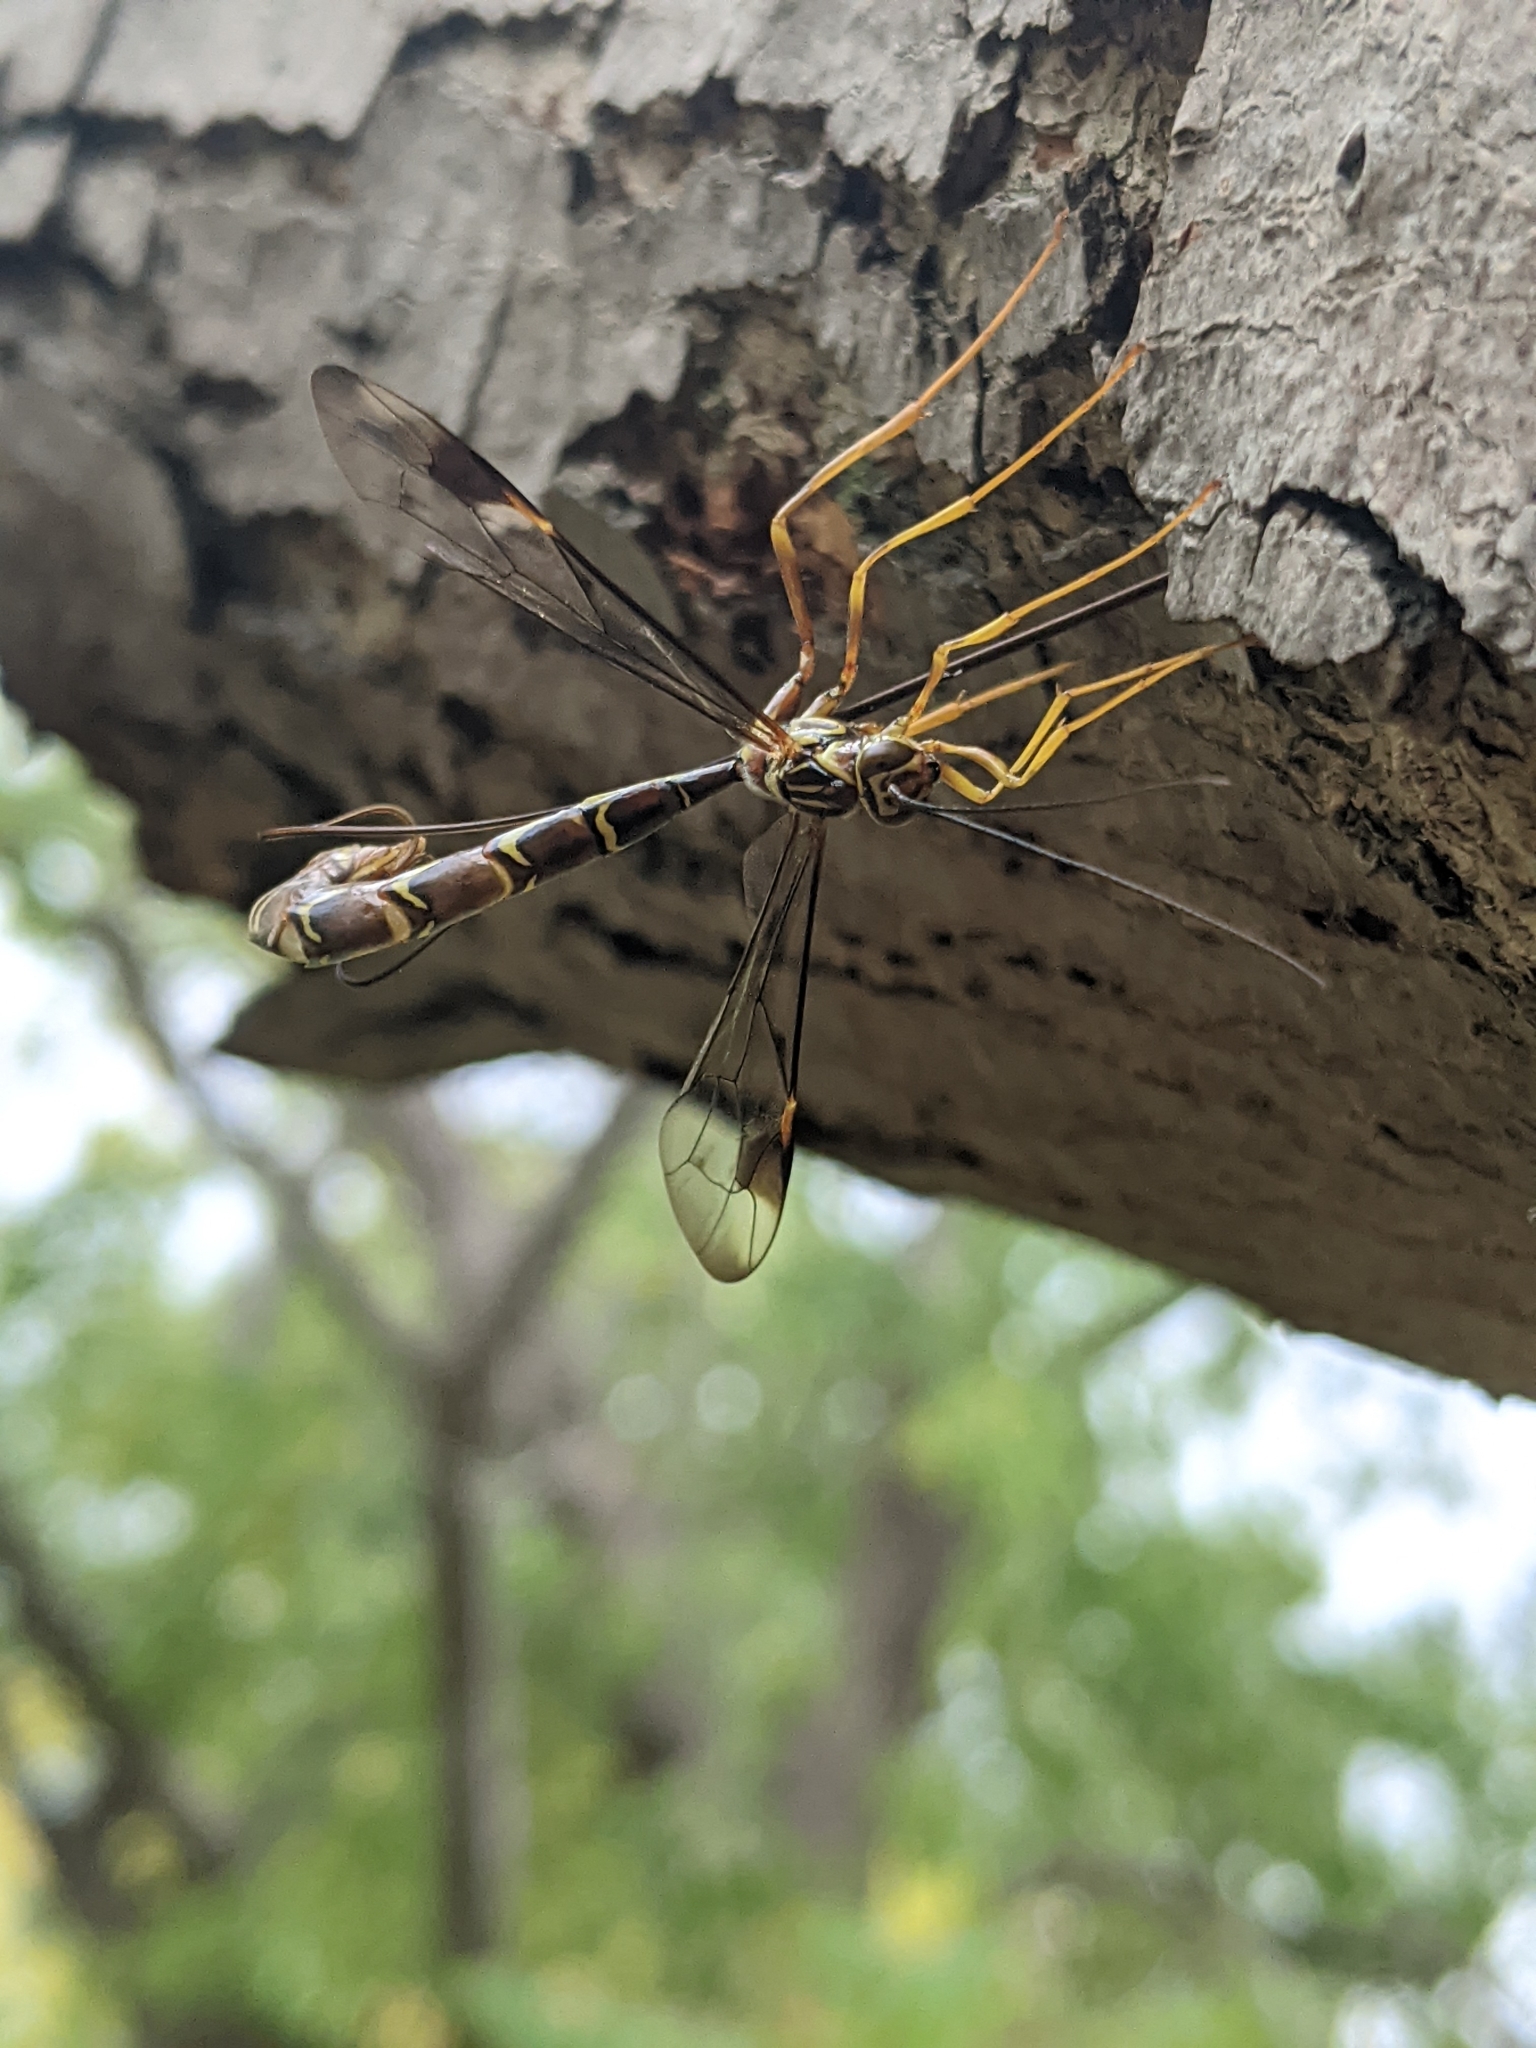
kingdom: Animalia
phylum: Arthropoda
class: Insecta
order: Hymenoptera
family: Ichneumonidae
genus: Megarhyssa
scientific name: Megarhyssa macrura
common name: Long-tailed giant ichneumonid wasp
